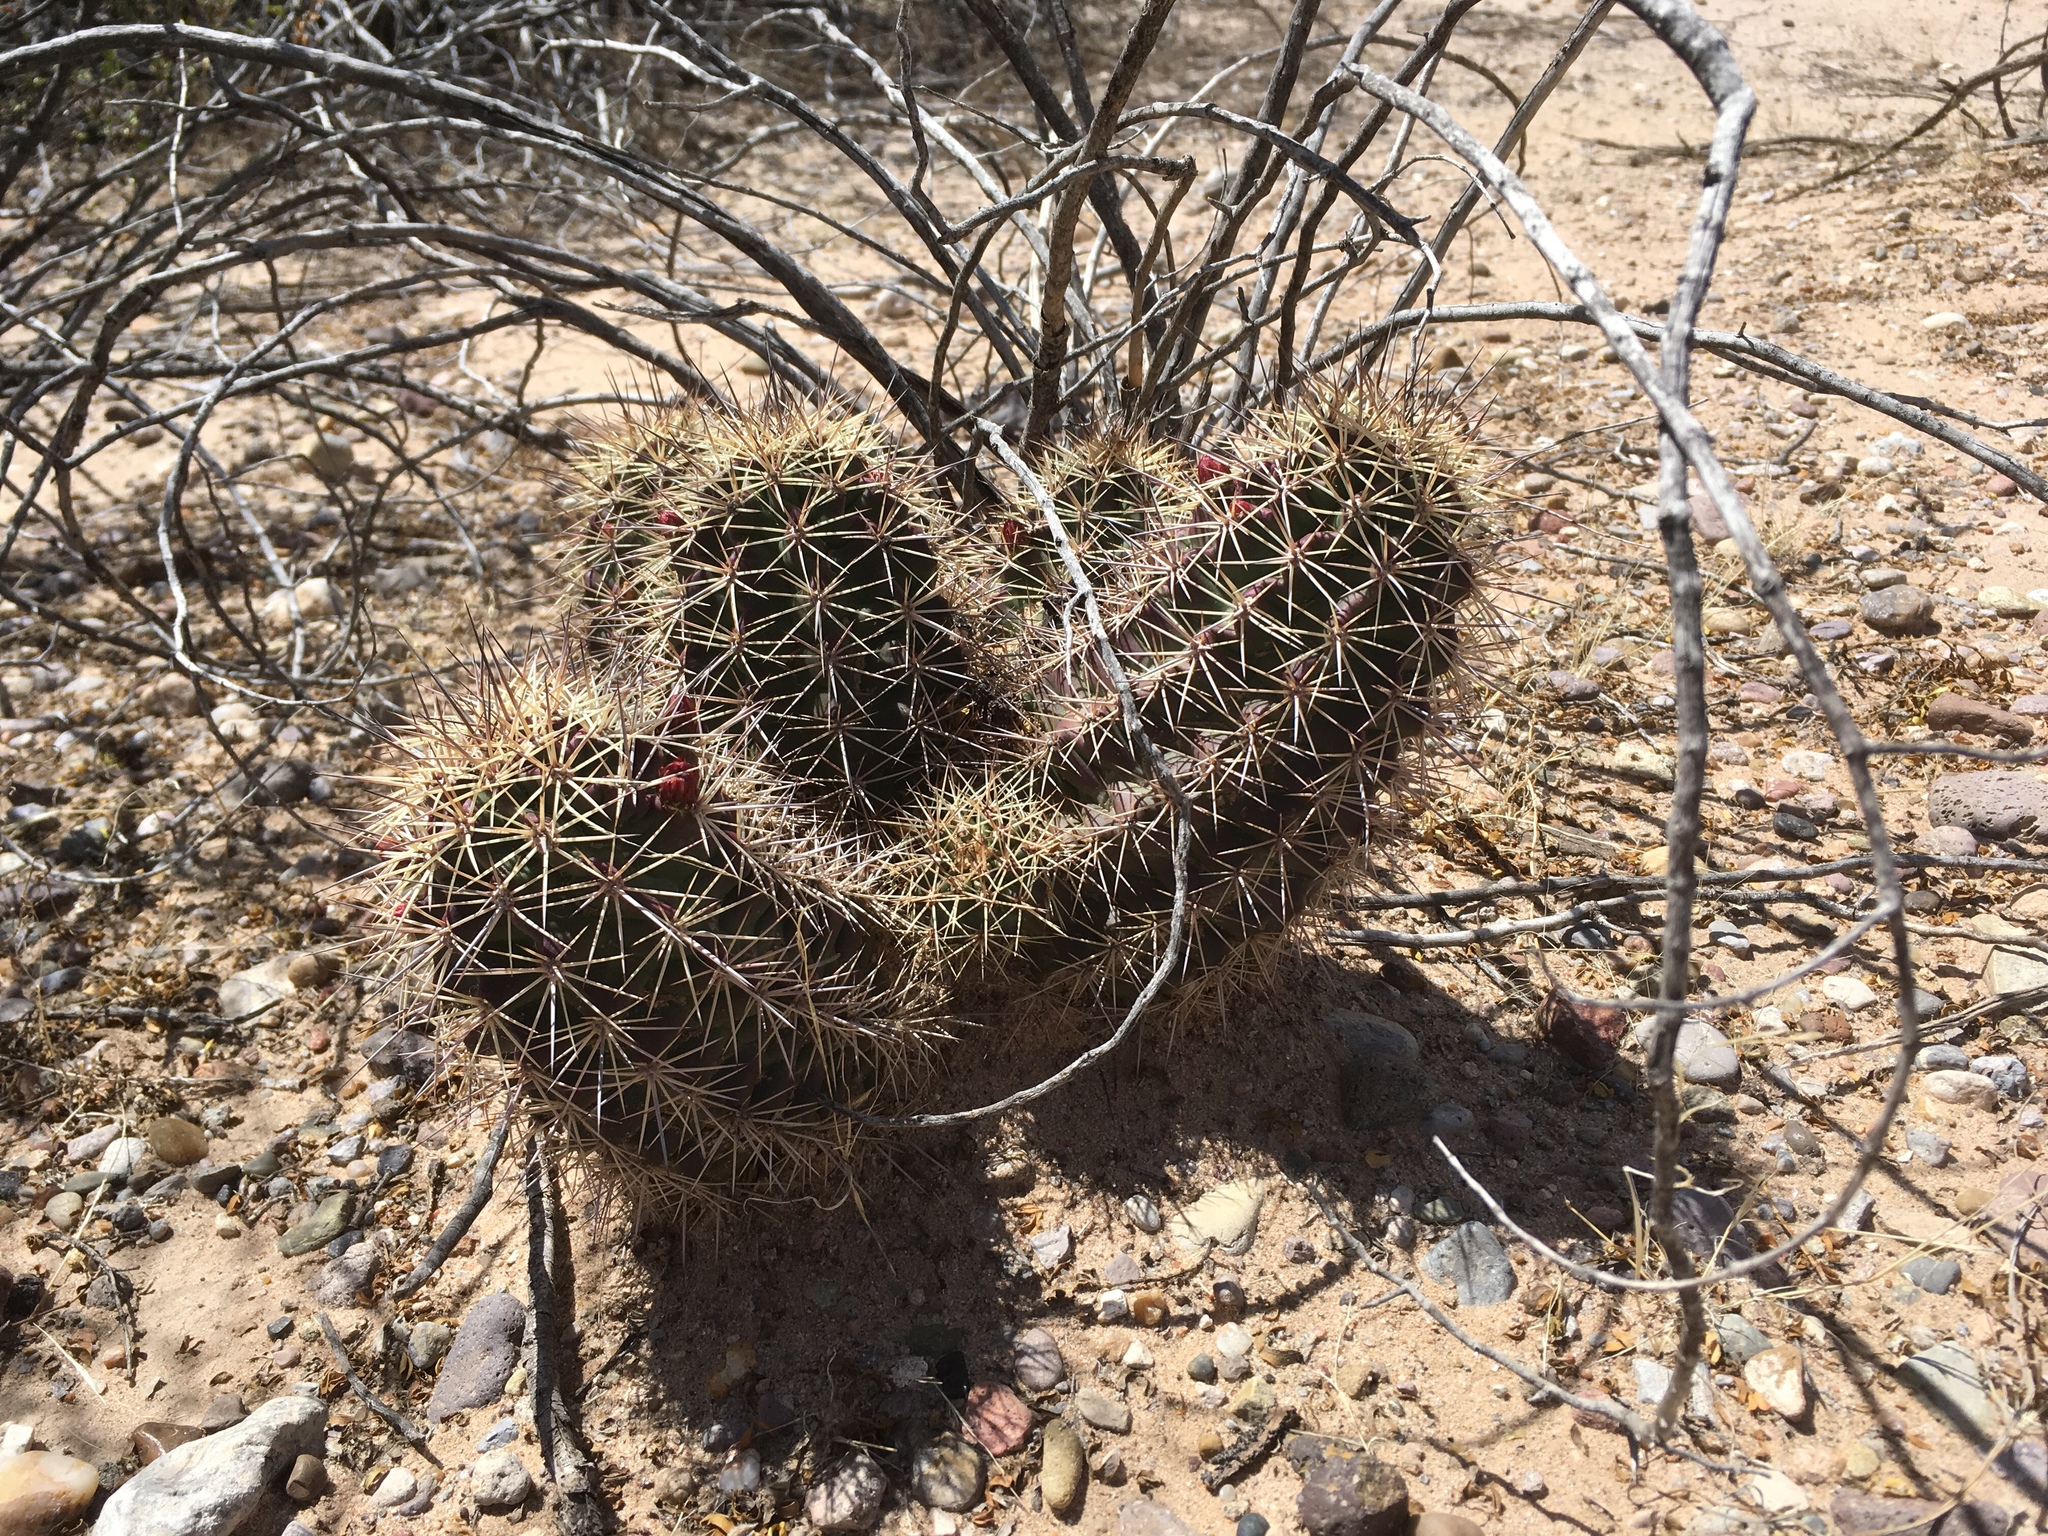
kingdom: Plantae
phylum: Tracheophyta
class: Magnoliopsida
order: Caryophyllales
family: Cactaceae
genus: Echinocereus
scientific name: Echinocereus coccineus
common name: Scarlet hedgehog cactus
